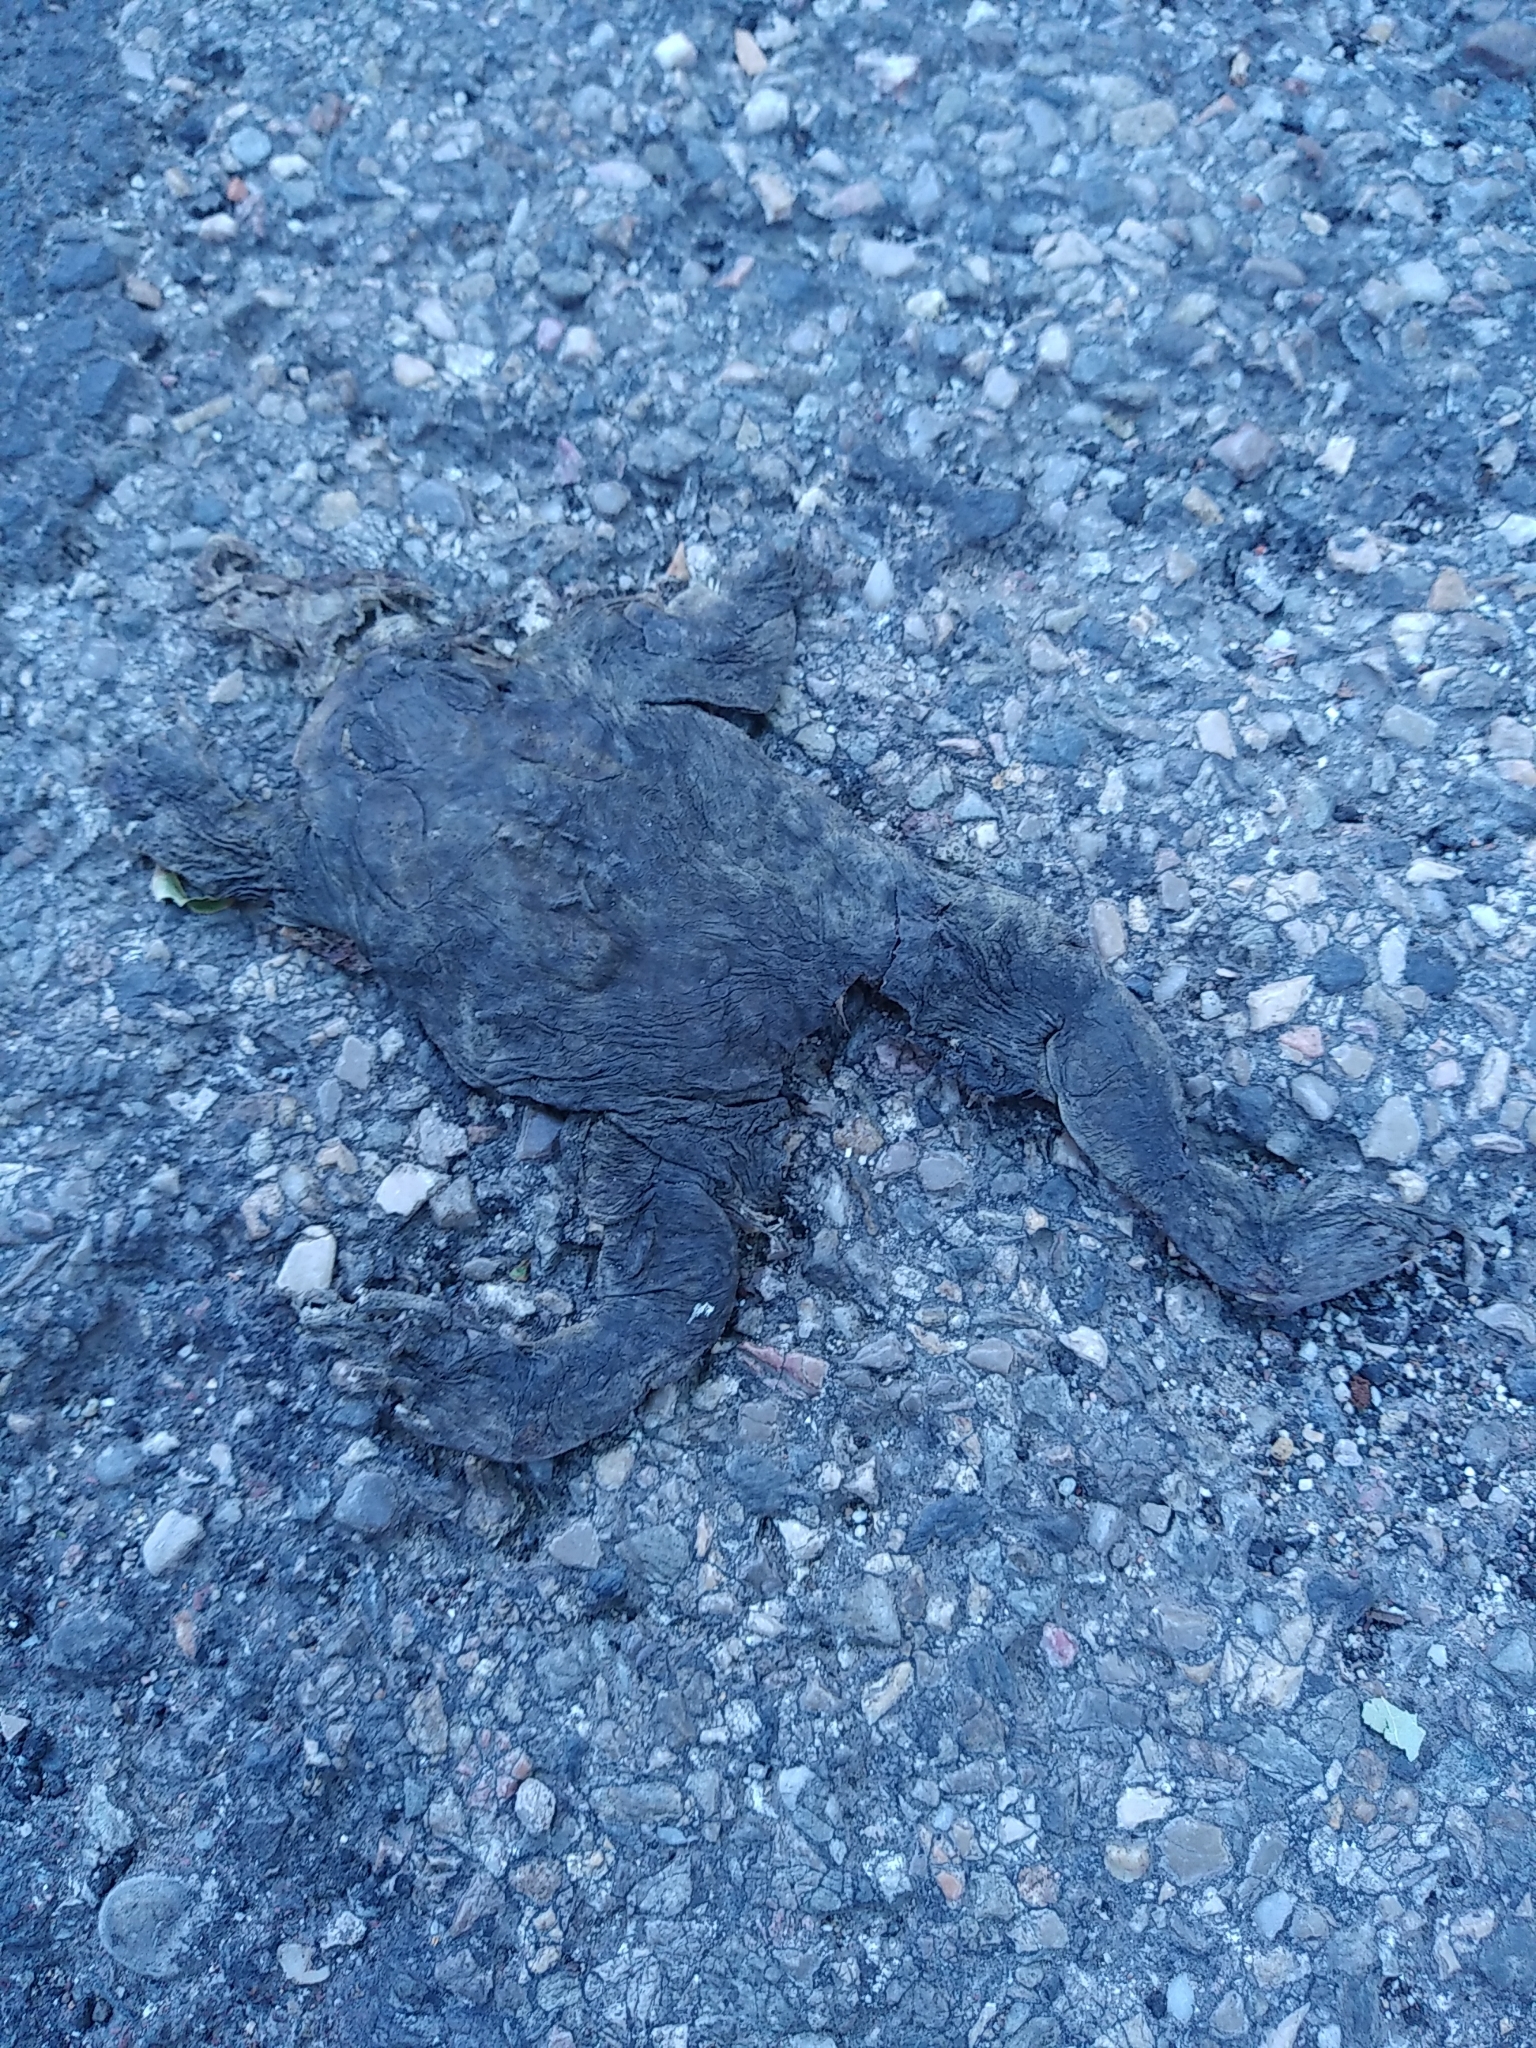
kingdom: Animalia
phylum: Chordata
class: Amphibia
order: Anura
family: Bufonidae
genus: Bufo
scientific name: Bufo spinosus
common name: Western common toad
